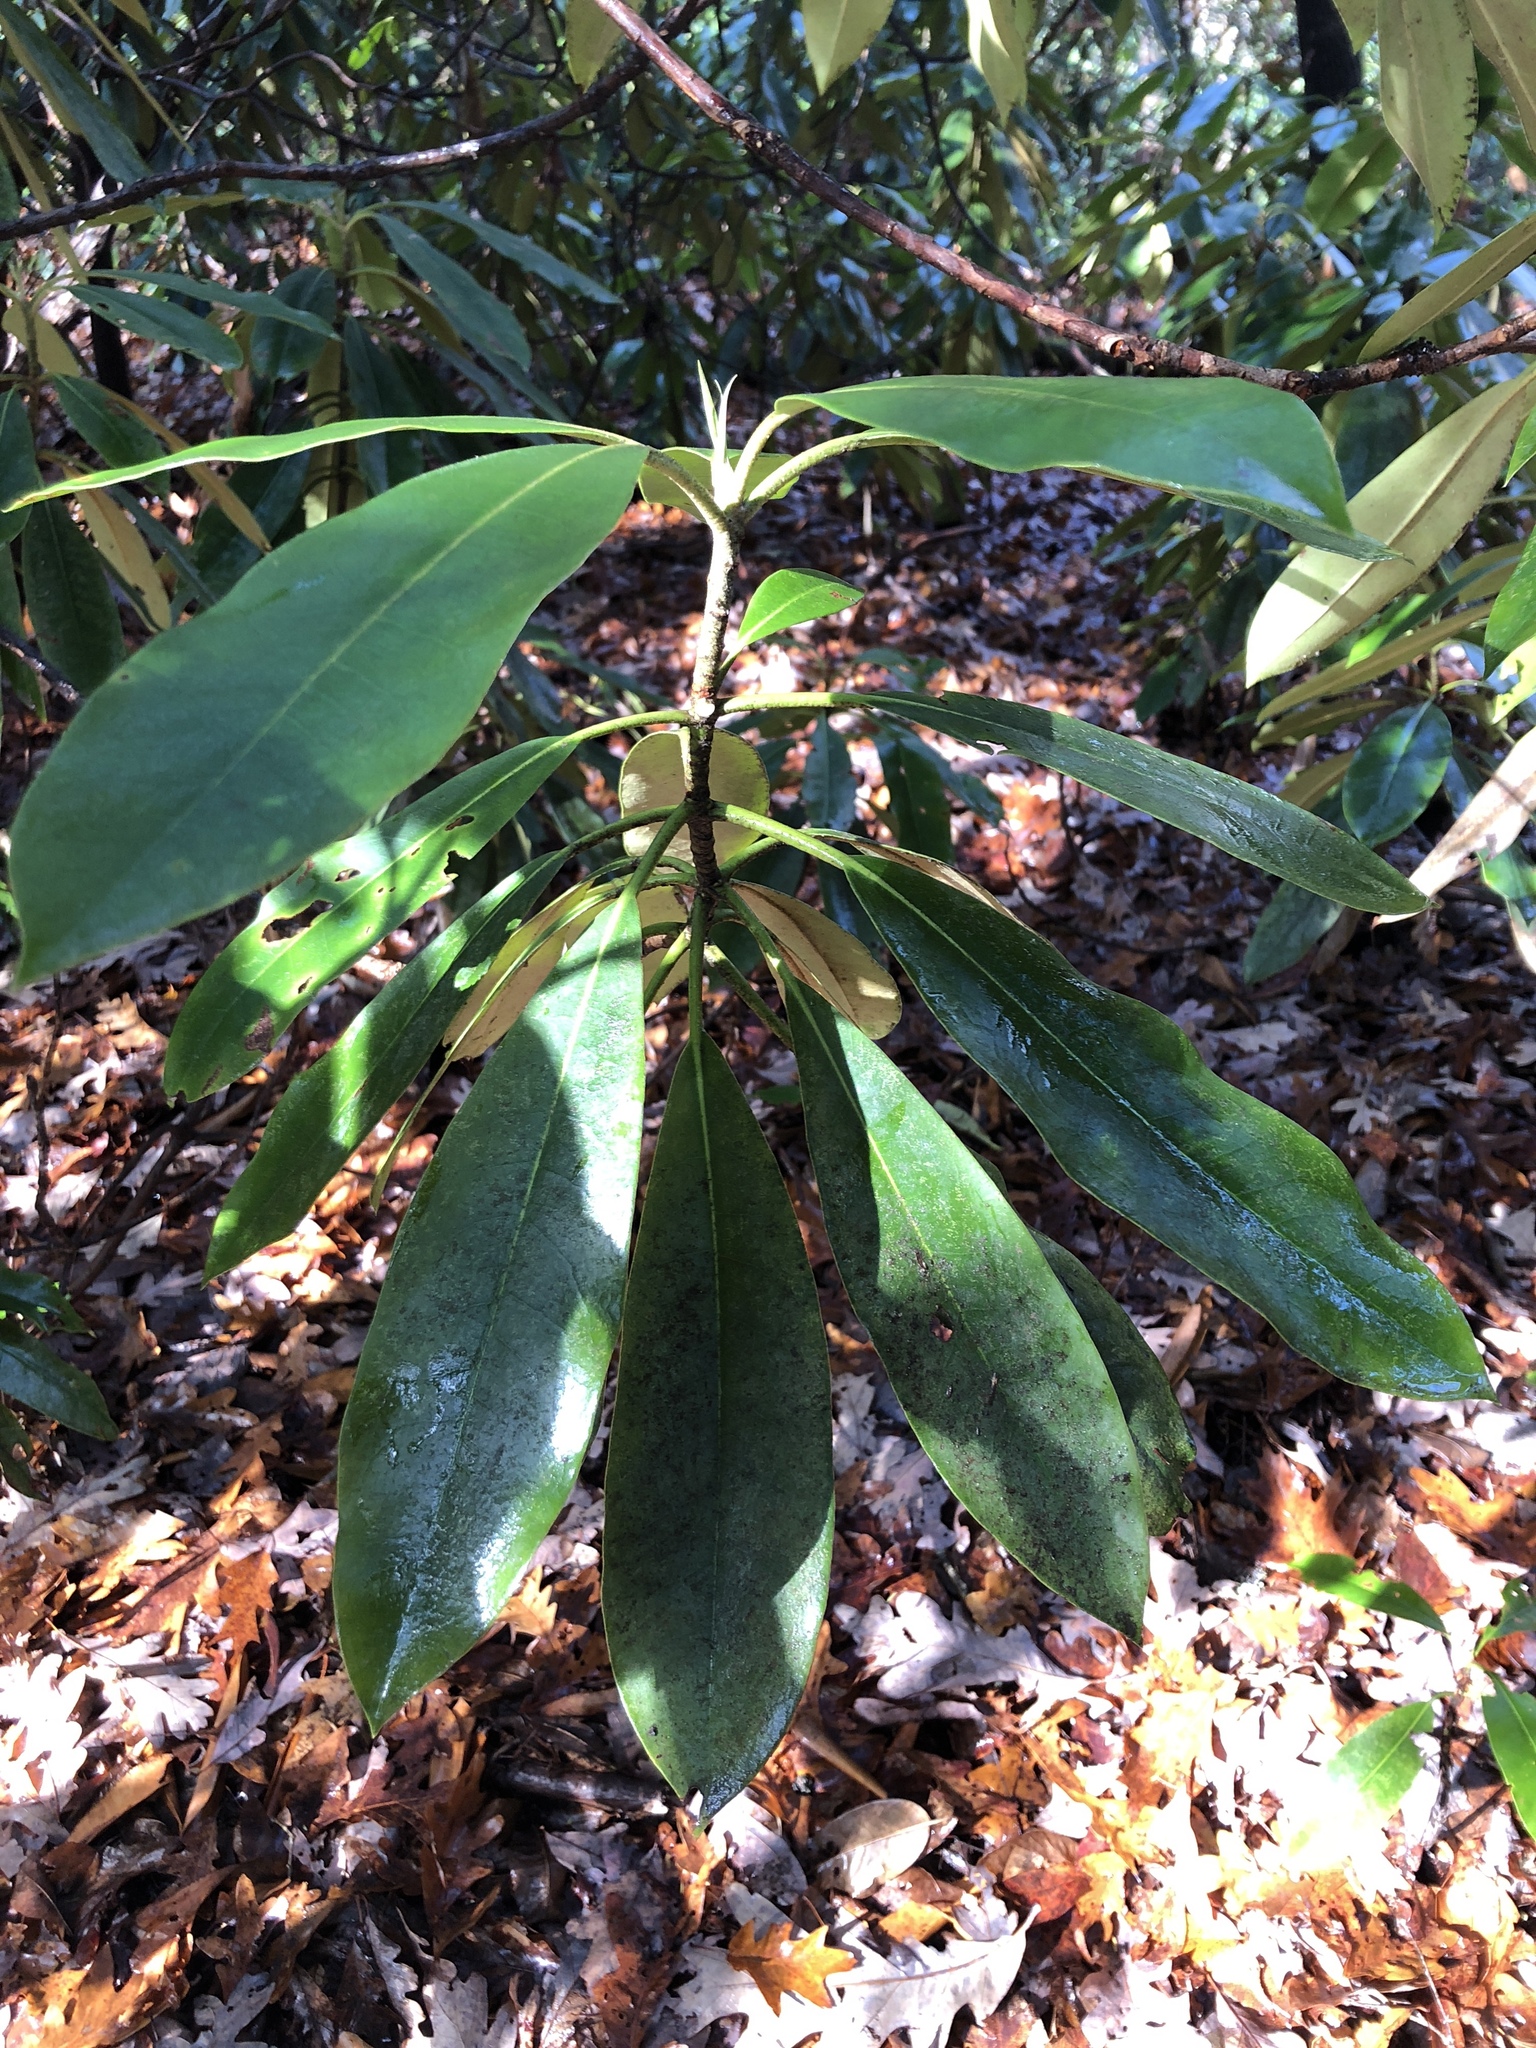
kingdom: Plantae
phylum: Tracheophyta
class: Magnoliopsida
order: Ericales
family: Ericaceae
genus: Rhododendron
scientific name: Rhododendron maximum
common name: Great rhododendron
